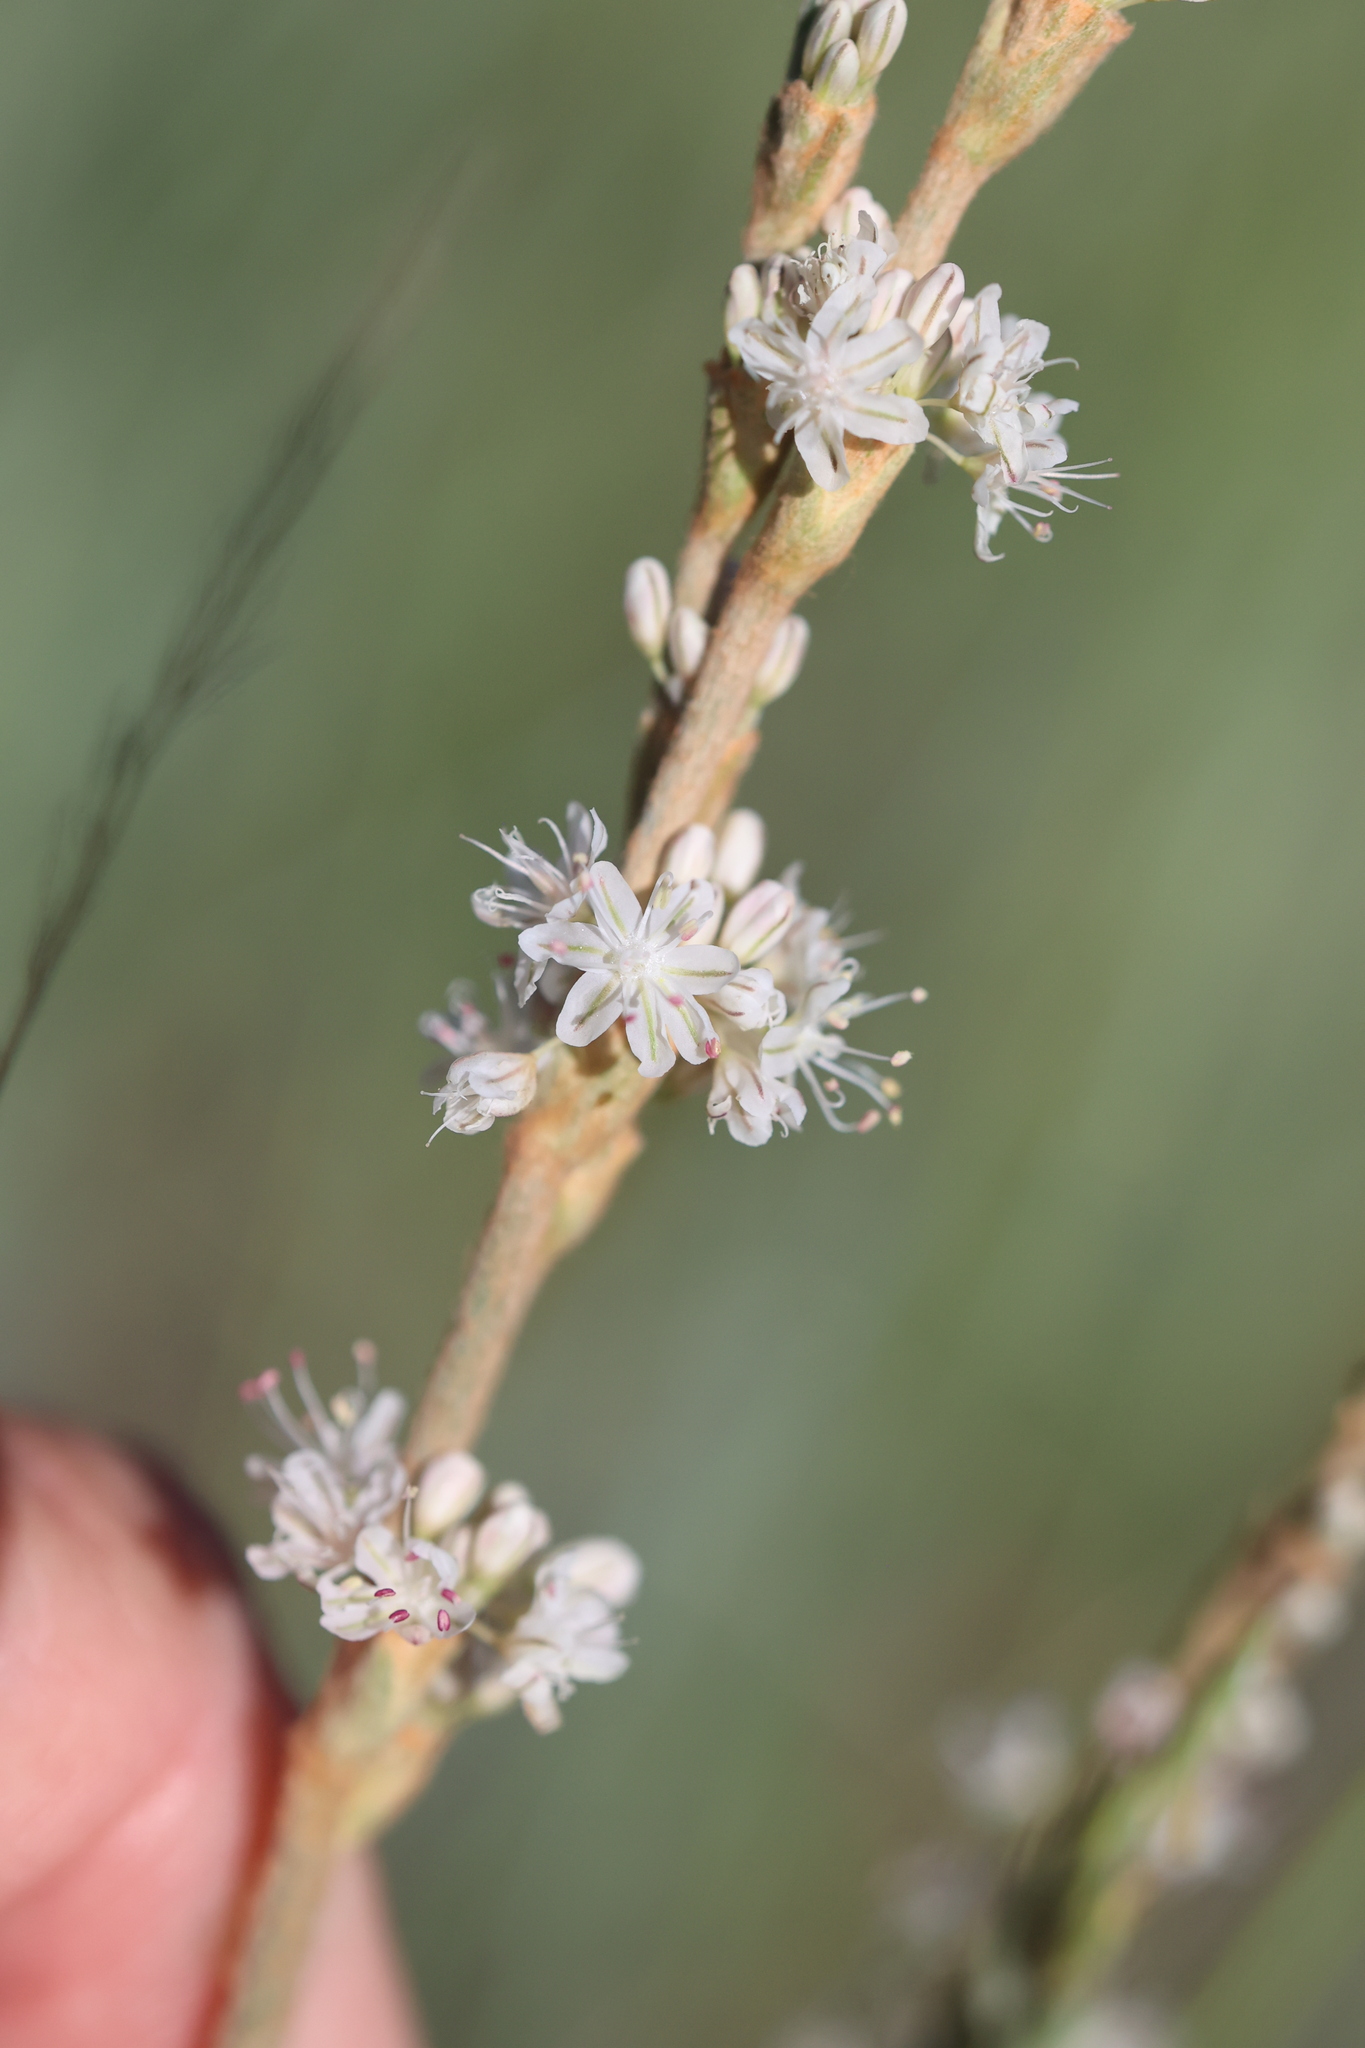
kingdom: Plantae
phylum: Tracheophyta
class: Magnoliopsida
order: Caryophyllales
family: Polygonaceae
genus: Eriogonum
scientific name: Eriogonum racemosum
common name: Redroot wild buckwheat
